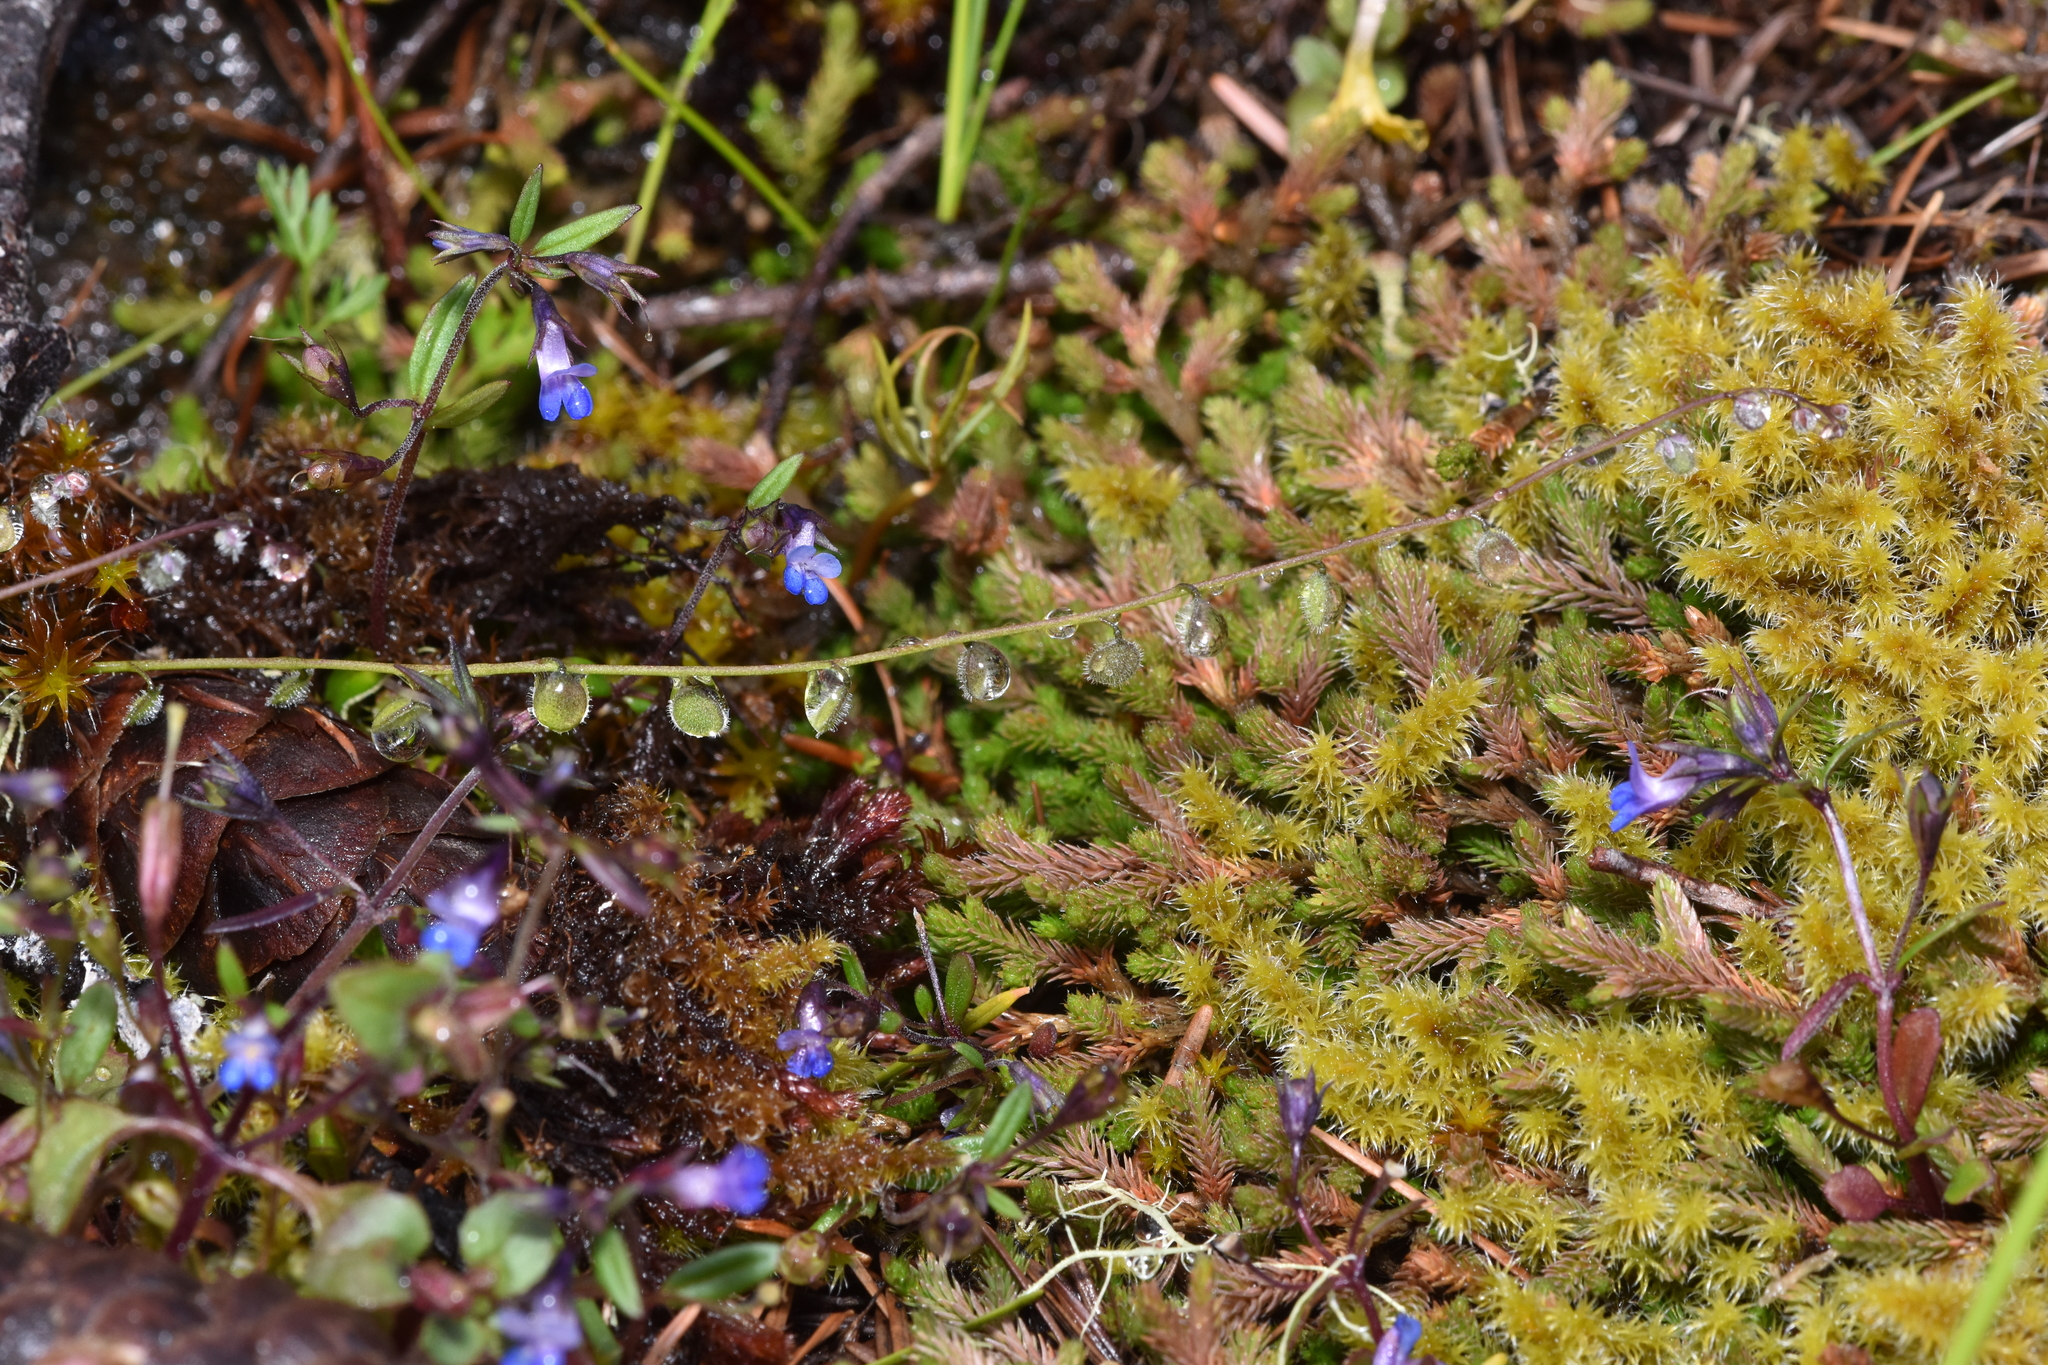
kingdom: Plantae
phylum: Tracheophyta
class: Magnoliopsida
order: Brassicales
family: Brassicaceae
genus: Athysanus
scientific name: Athysanus pusillus
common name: Common sandweed
